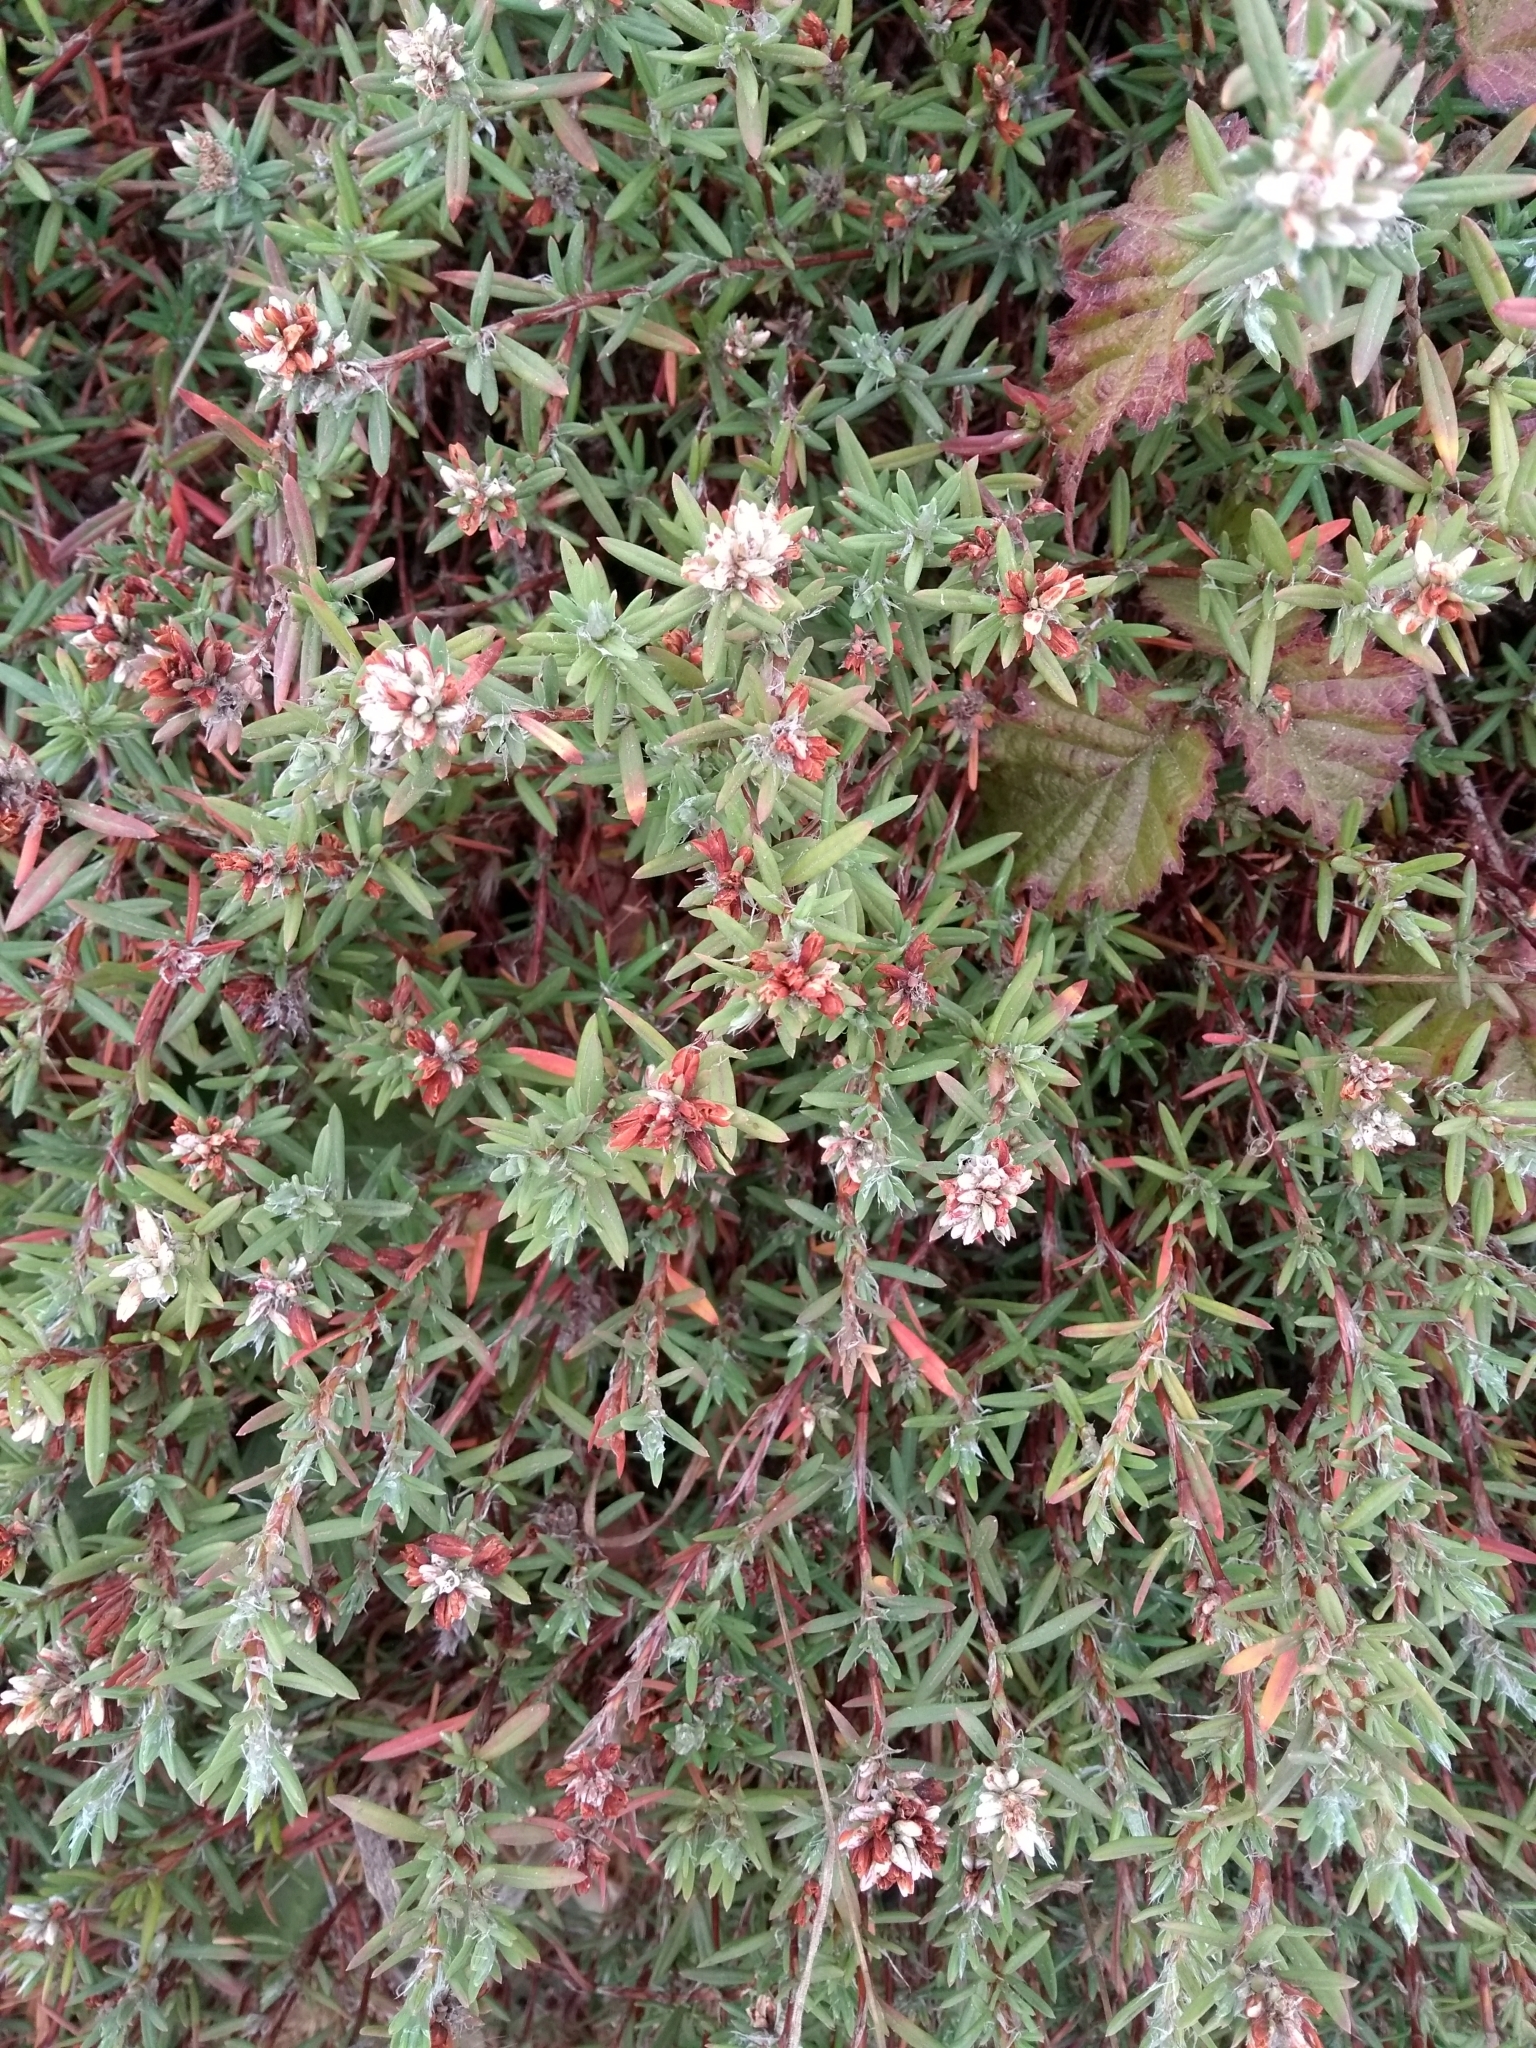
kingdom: Plantae
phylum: Tracheophyta
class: Magnoliopsida
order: Caryophyllales
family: Polygonaceae
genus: Polygonum
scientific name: Polygonum paronychia
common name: Dune knotweed
